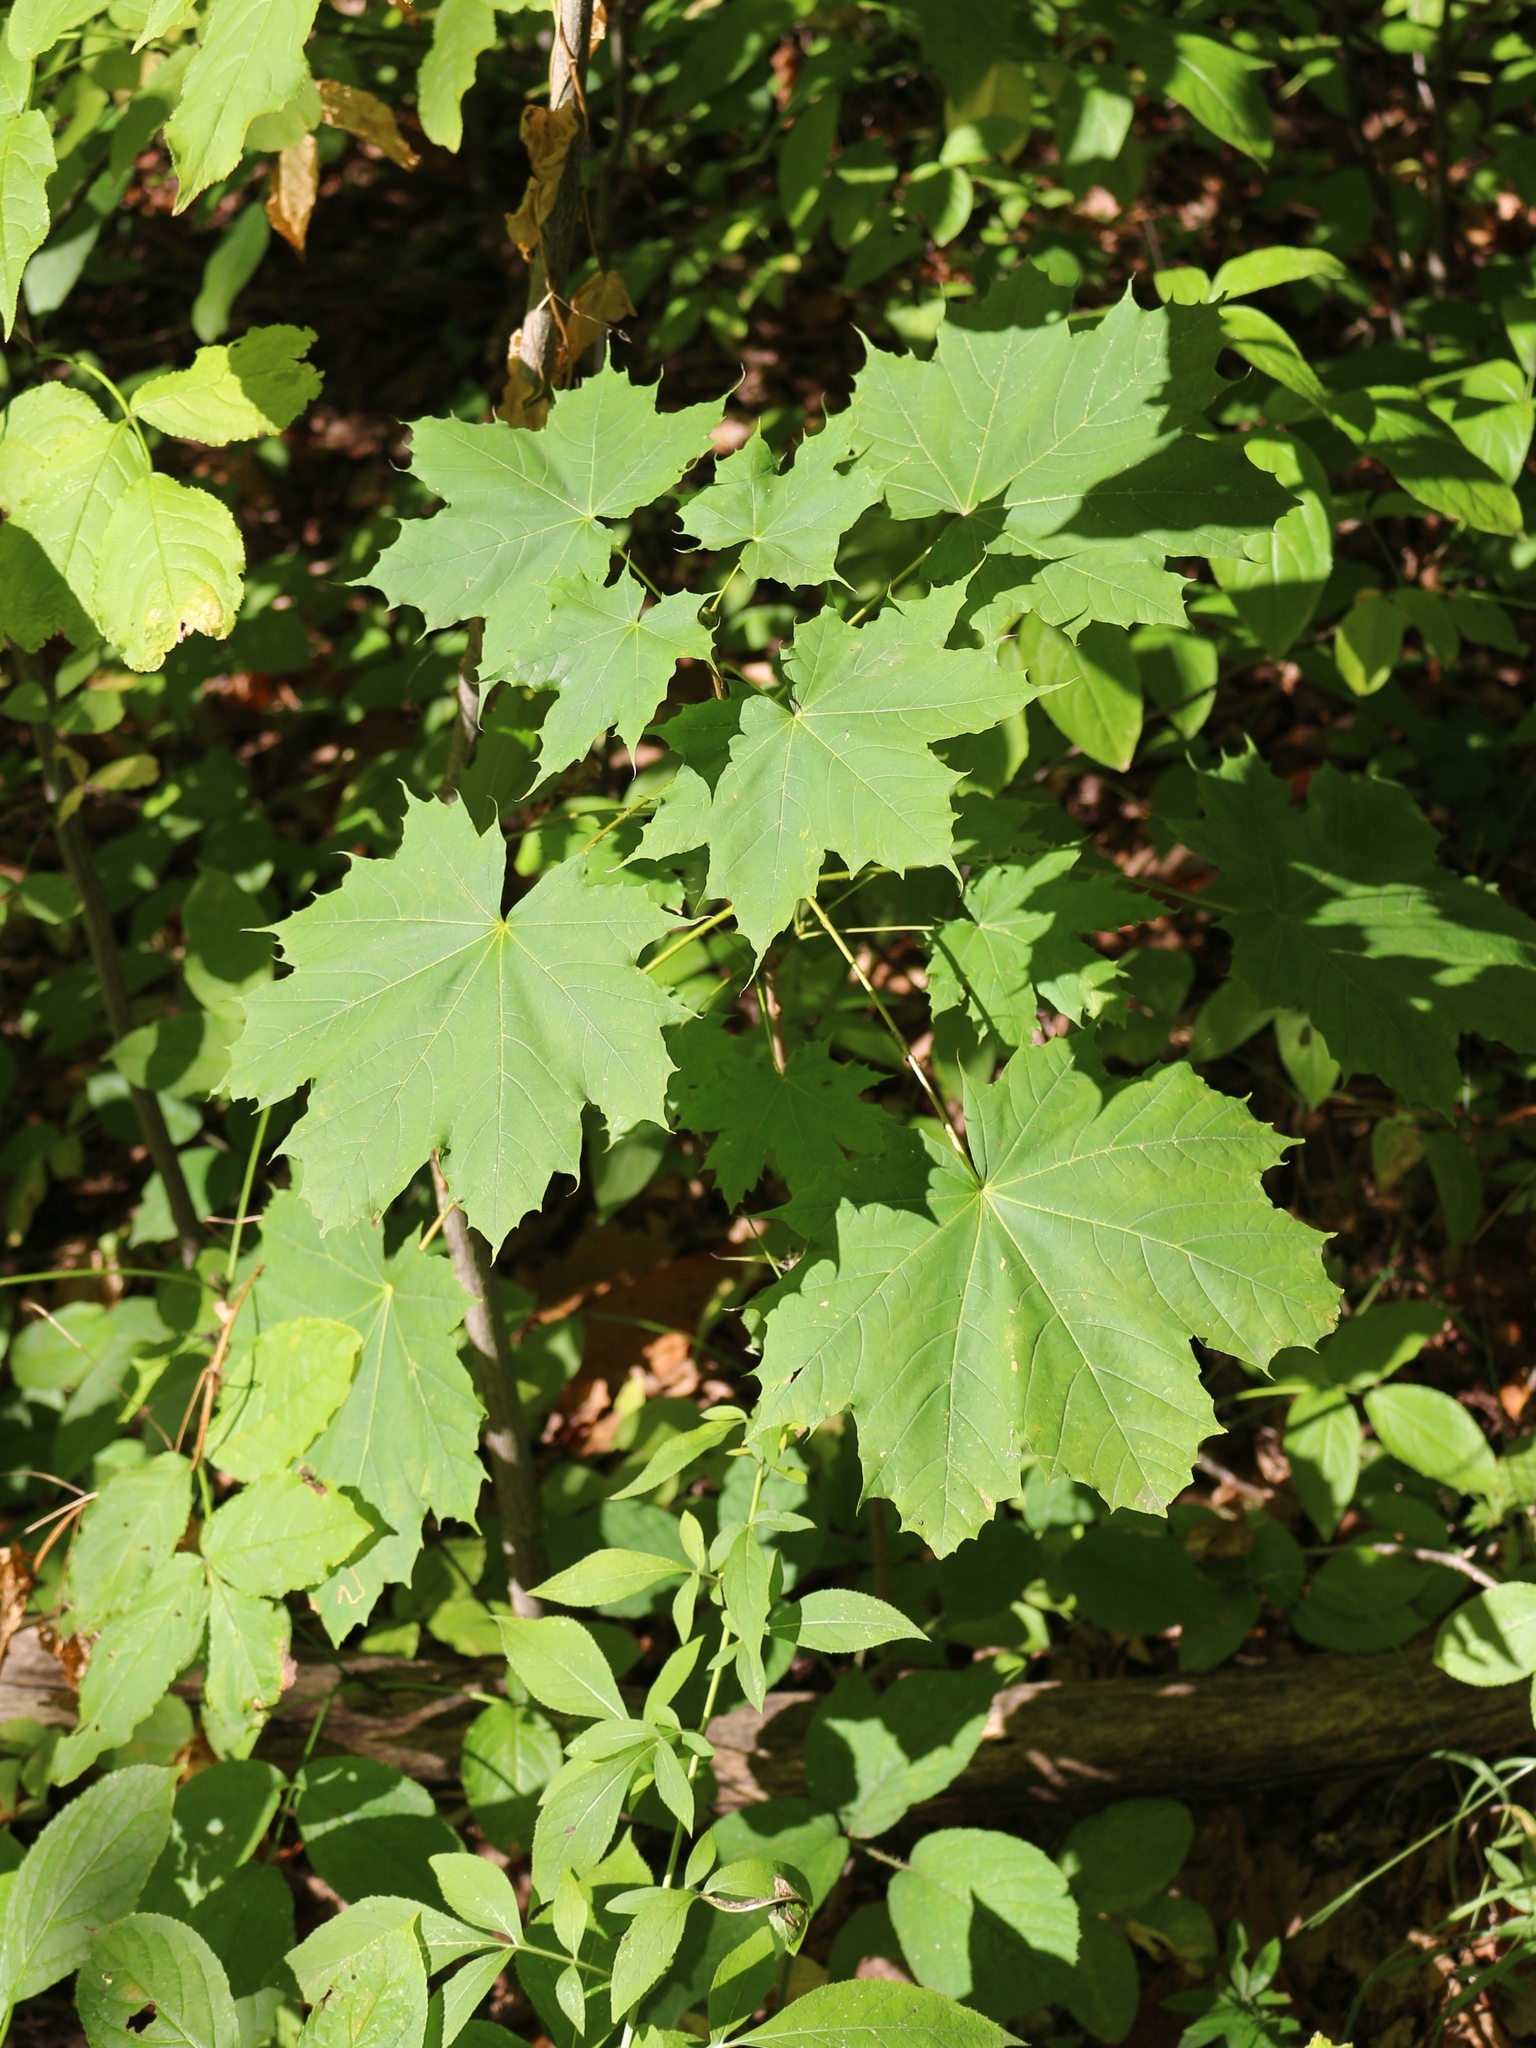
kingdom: Plantae
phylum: Tracheophyta
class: Magnoliopsida
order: Sapindales
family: Sapindaceae
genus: Acer
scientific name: Acer platanoides
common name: Norway maple
